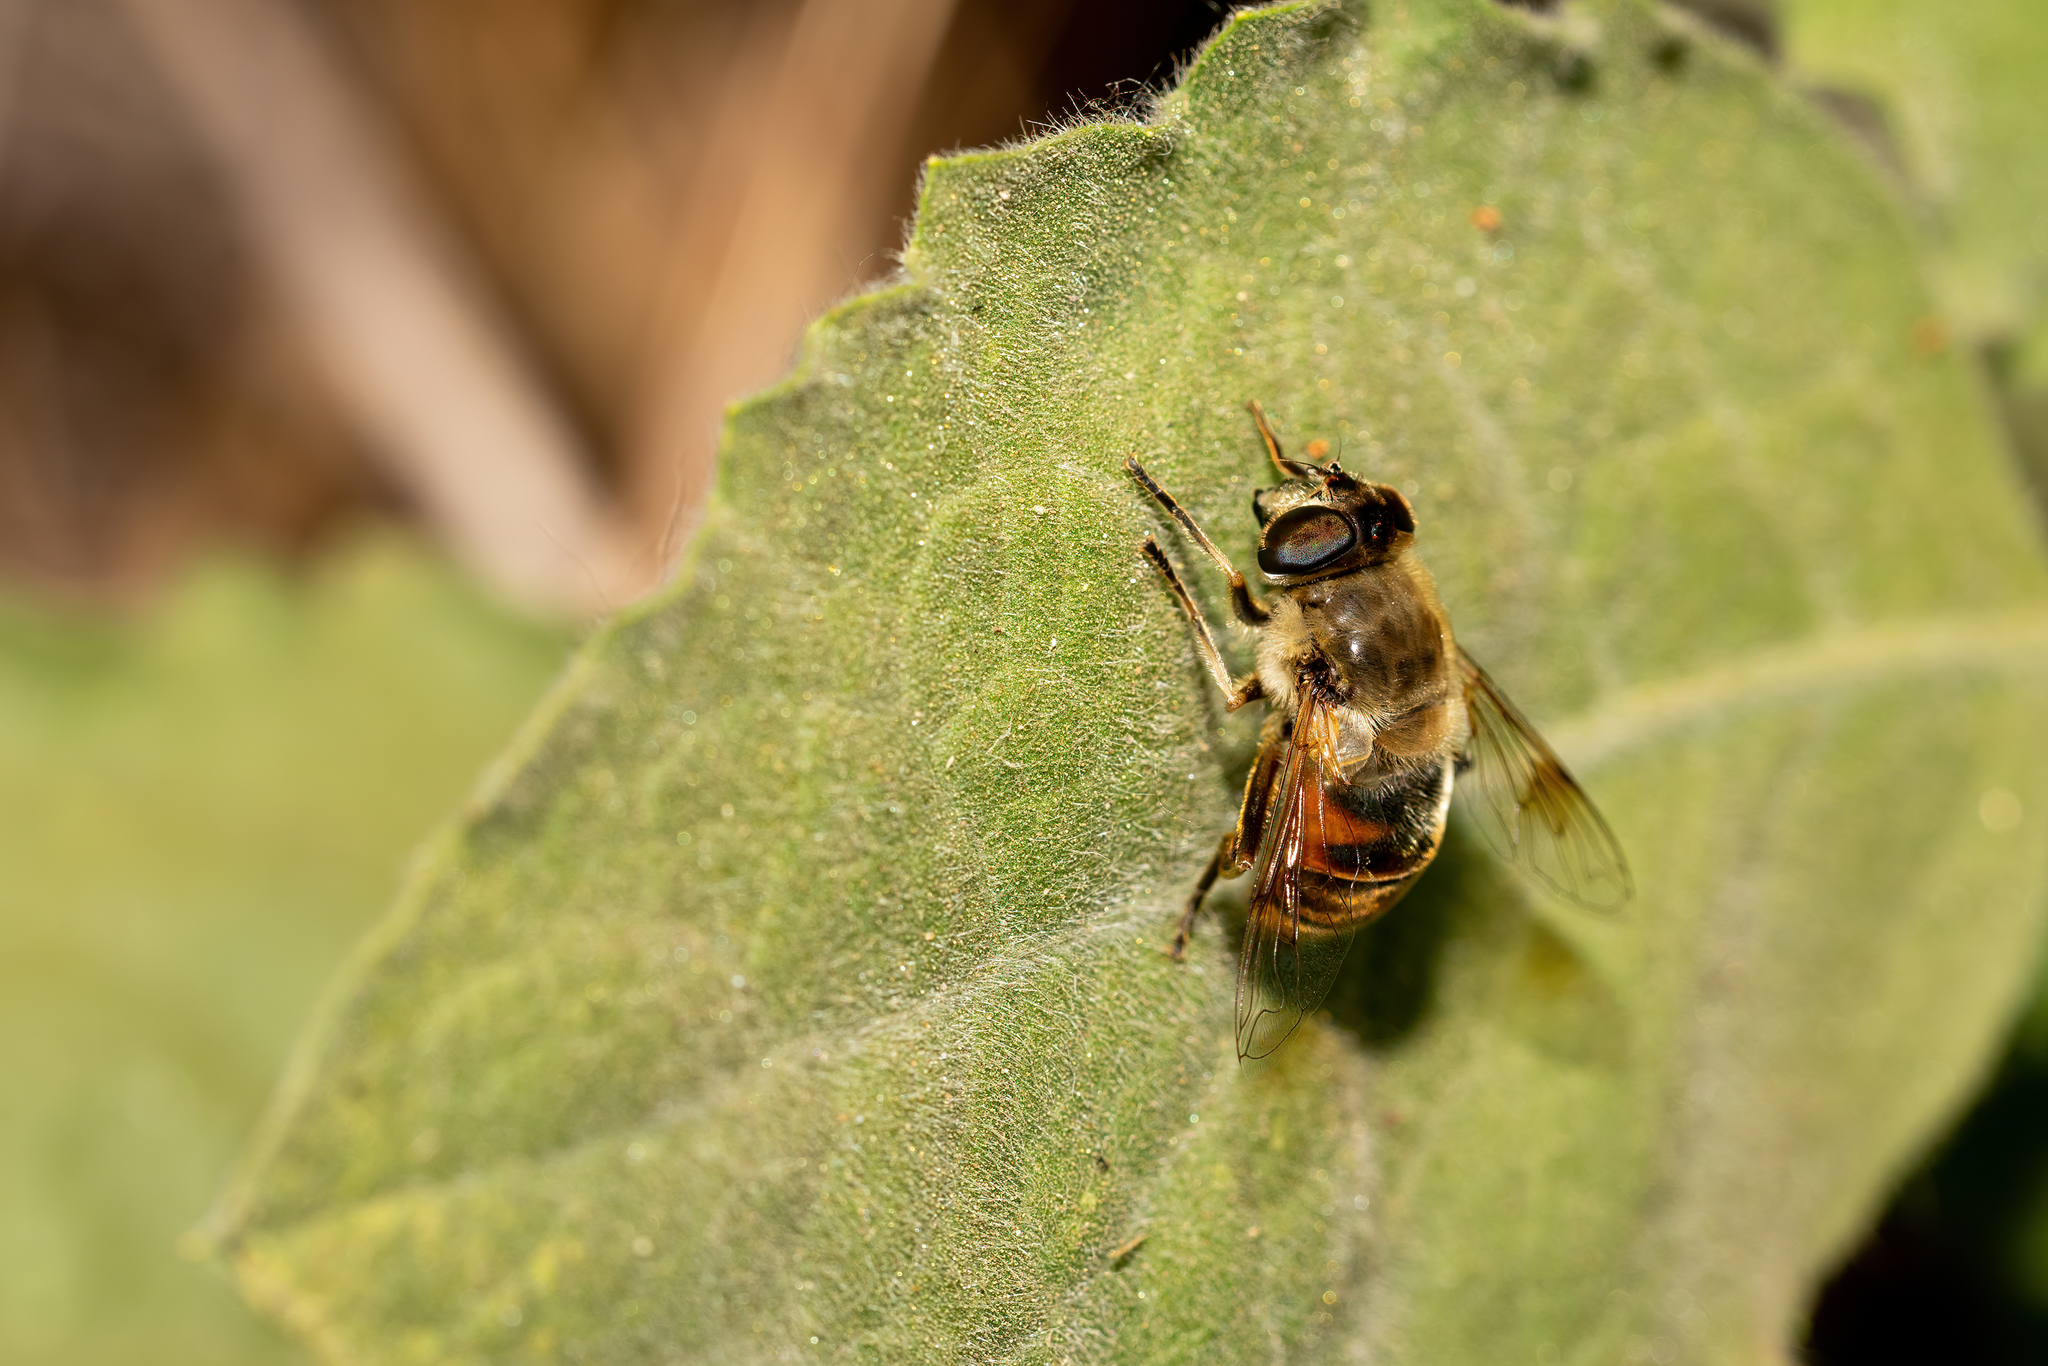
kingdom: Animalia
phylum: Arthropoda
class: Insecta
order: Diptera
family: Syrphidae
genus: Eristalis
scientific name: Eristalis tenax
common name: Drone fly
